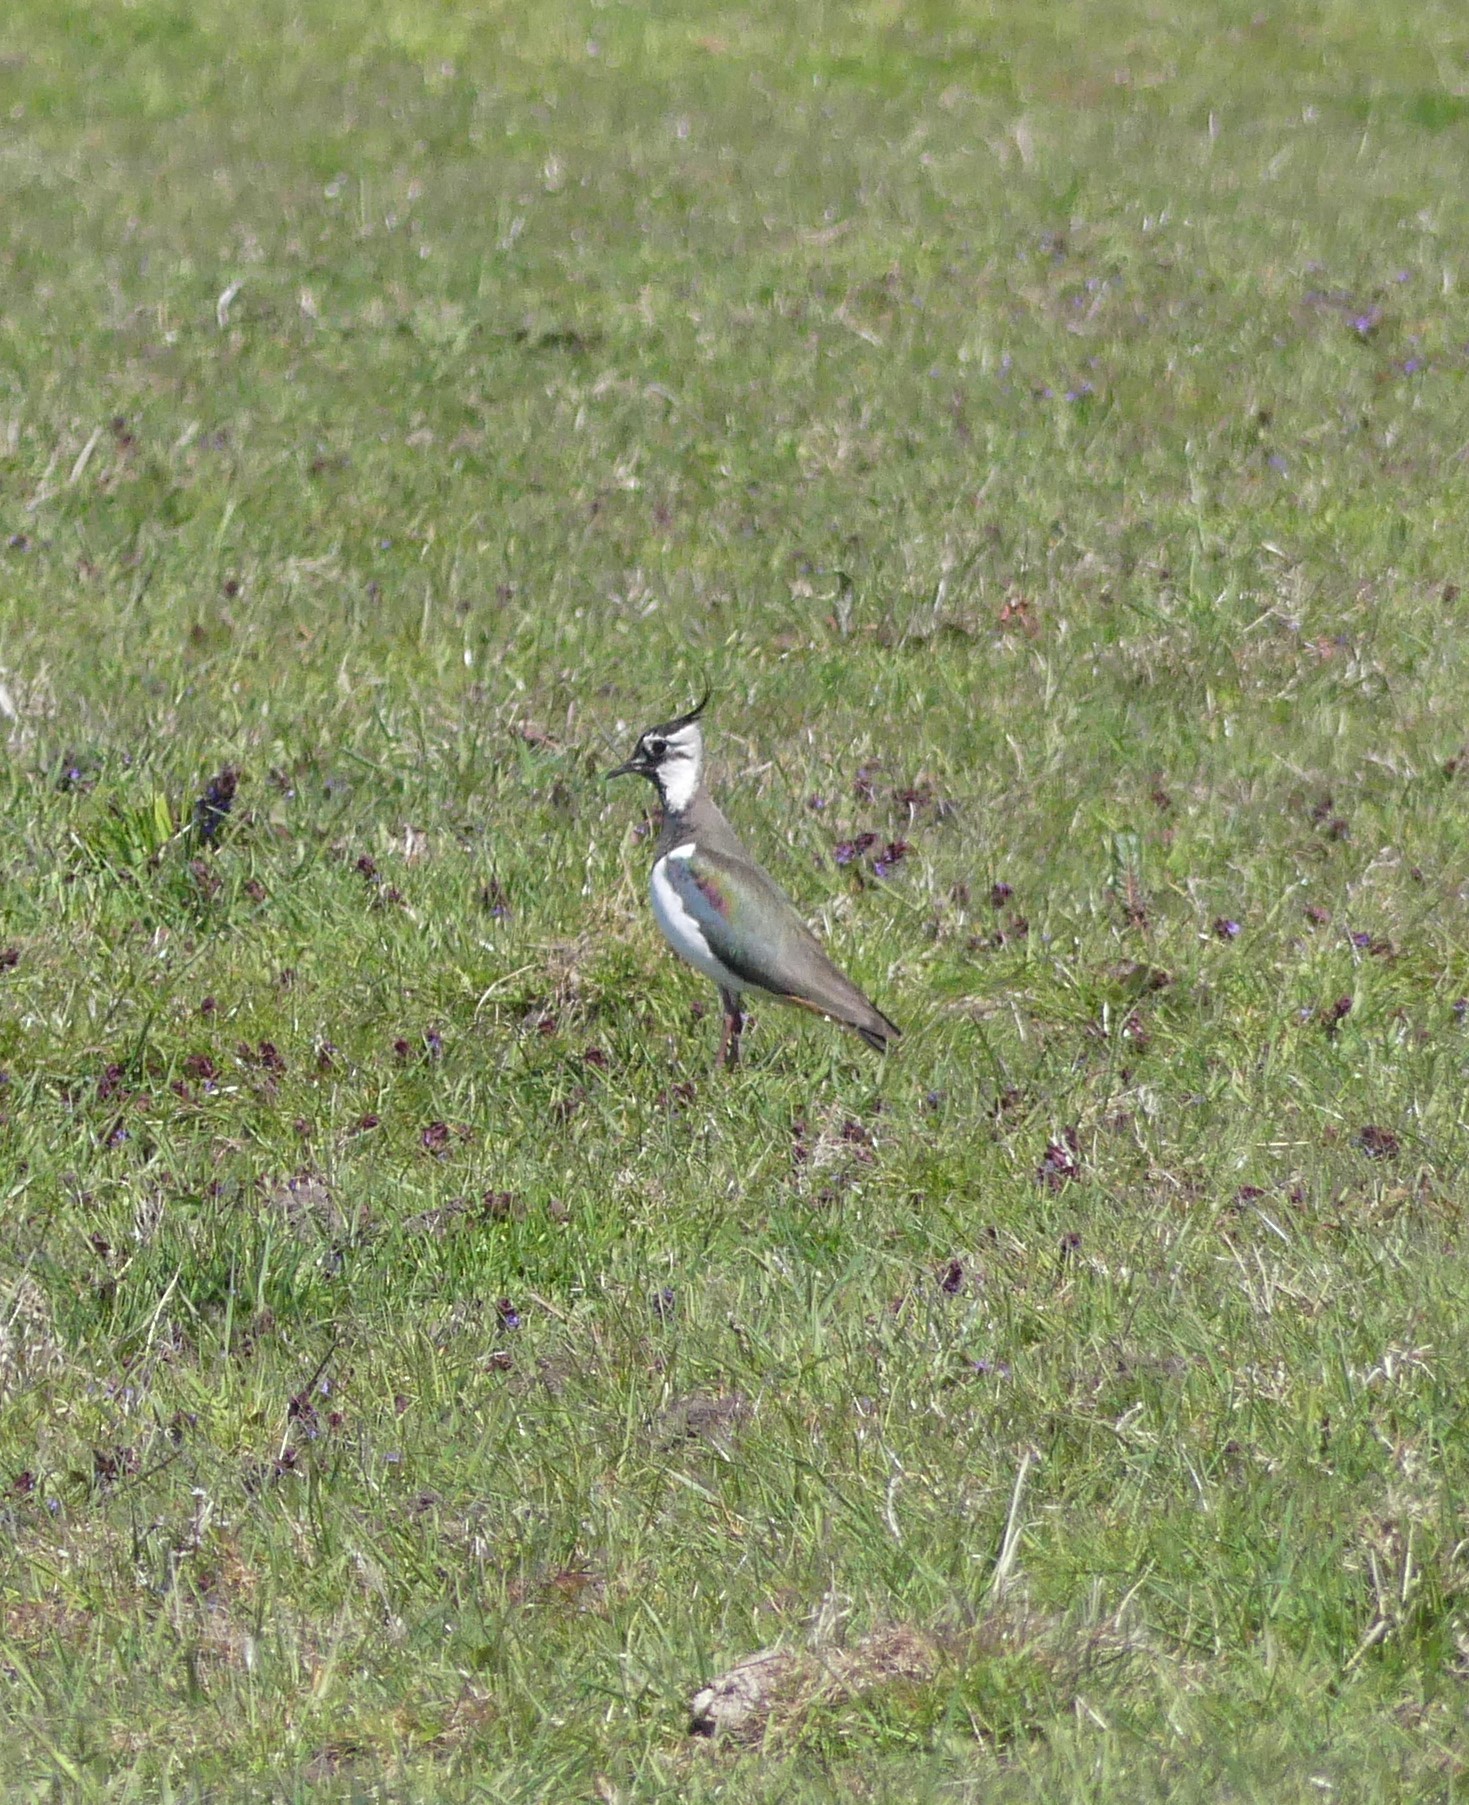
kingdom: Animalia
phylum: Chordata
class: Aves
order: Charadriiformes
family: Charadriidae
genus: Vanellus
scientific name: Vanellus vanellus
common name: Northern lapwing
